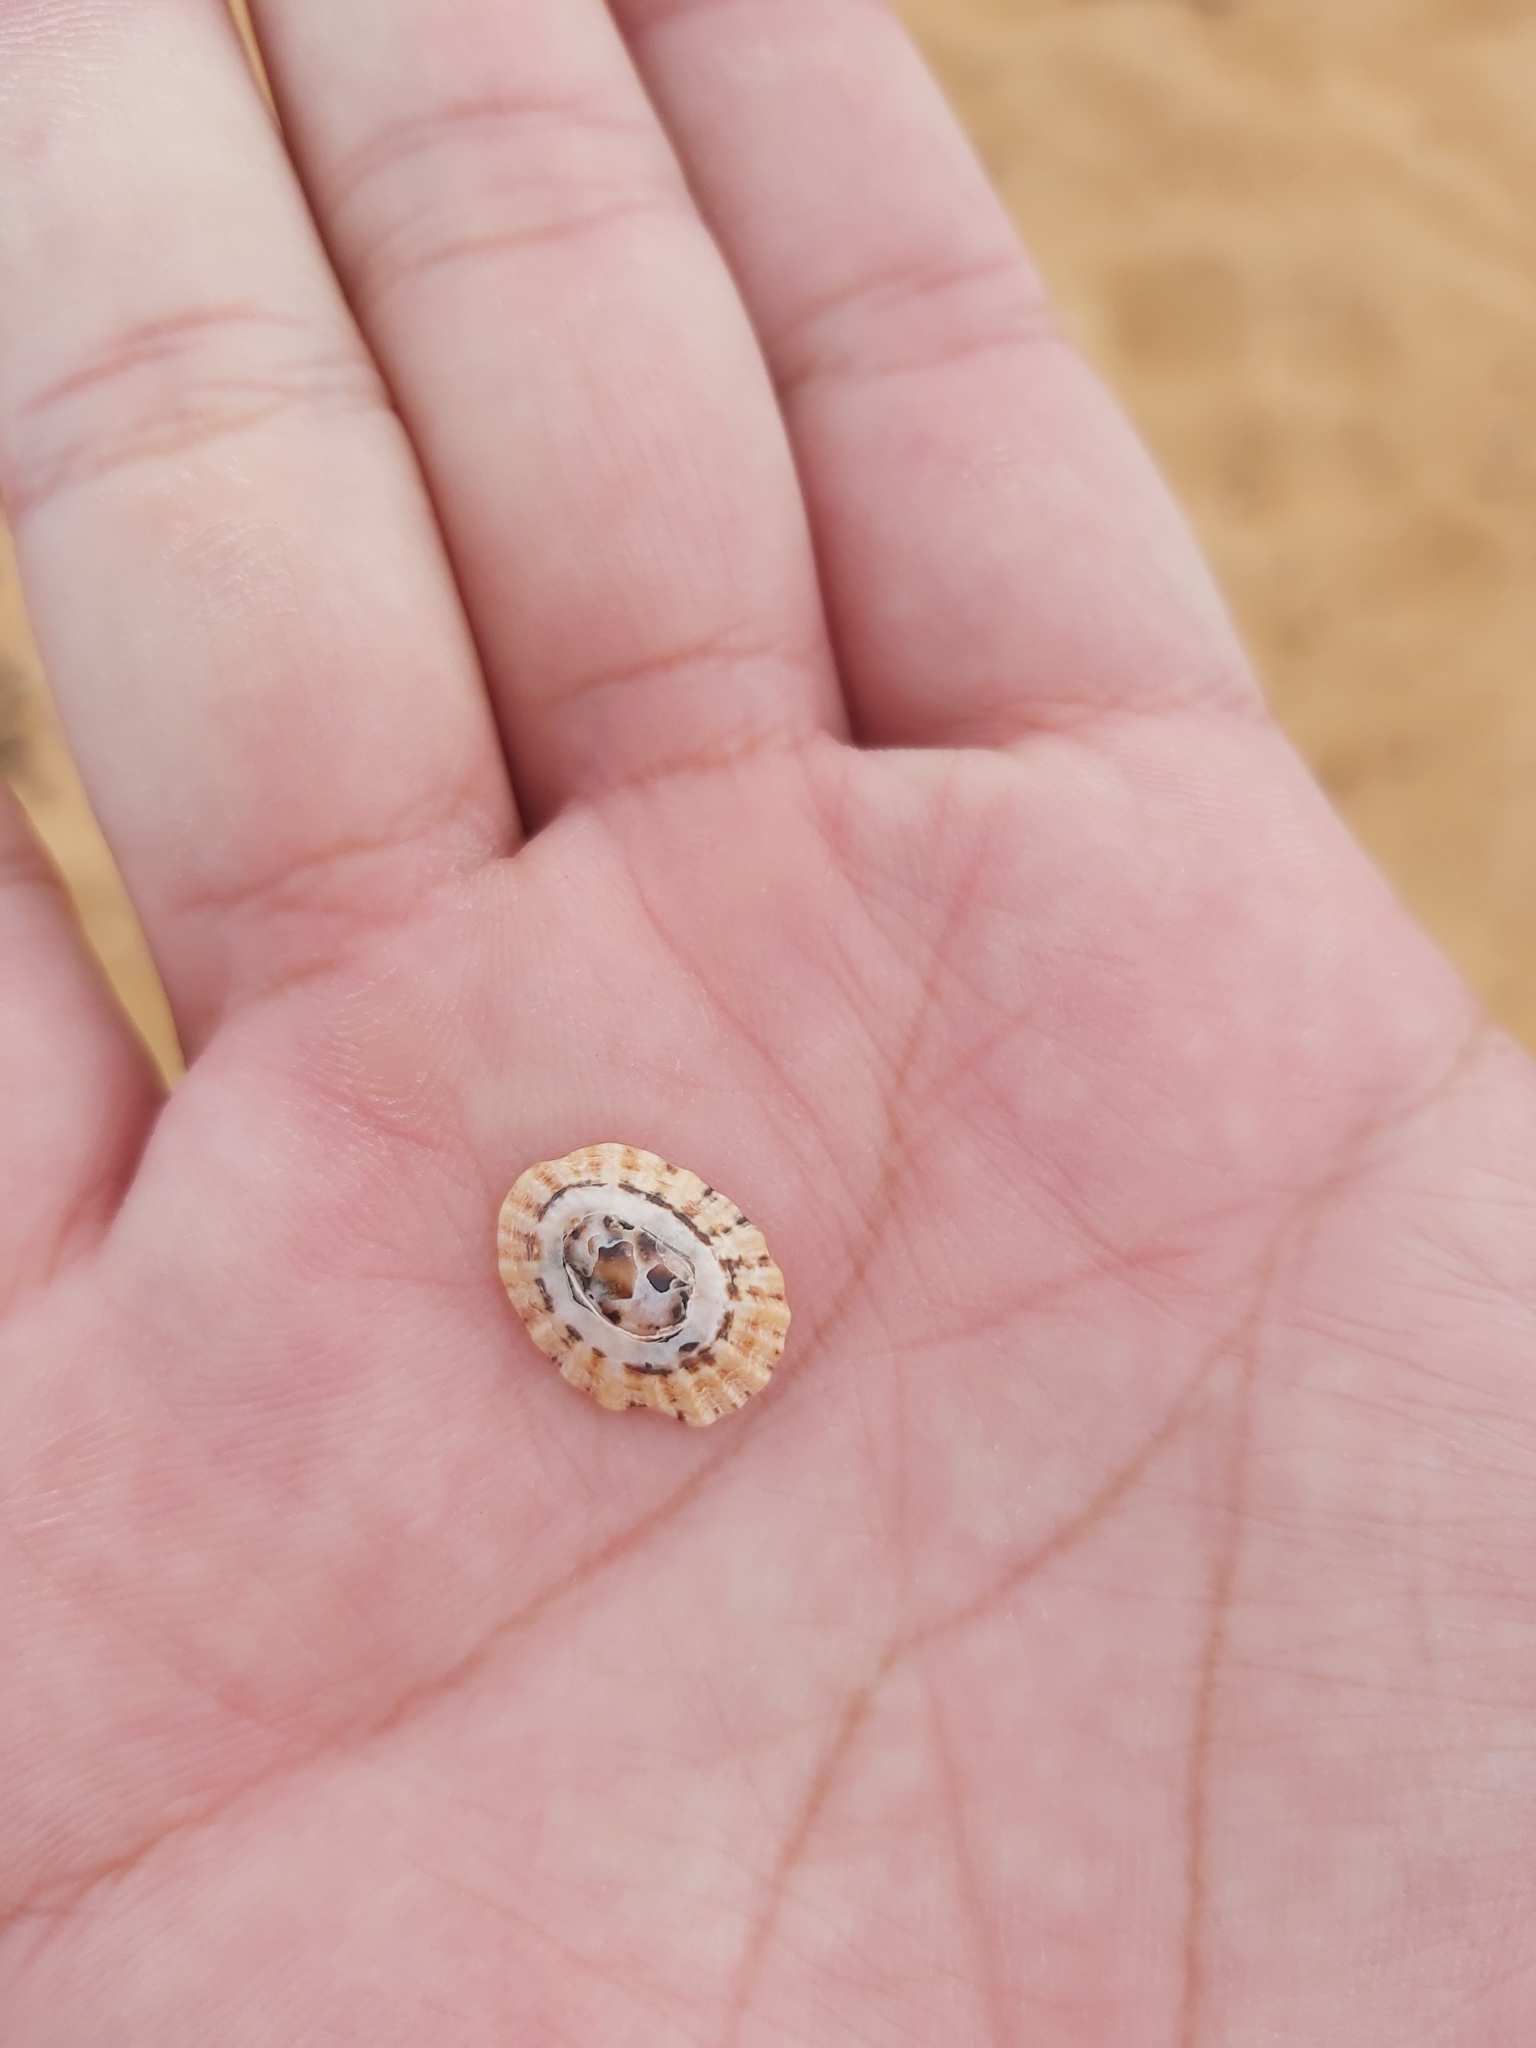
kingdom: Animalia
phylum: Mollusca
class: Gastropoda
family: Patellidae
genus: Scutellastra
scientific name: Scutellastra peronii
